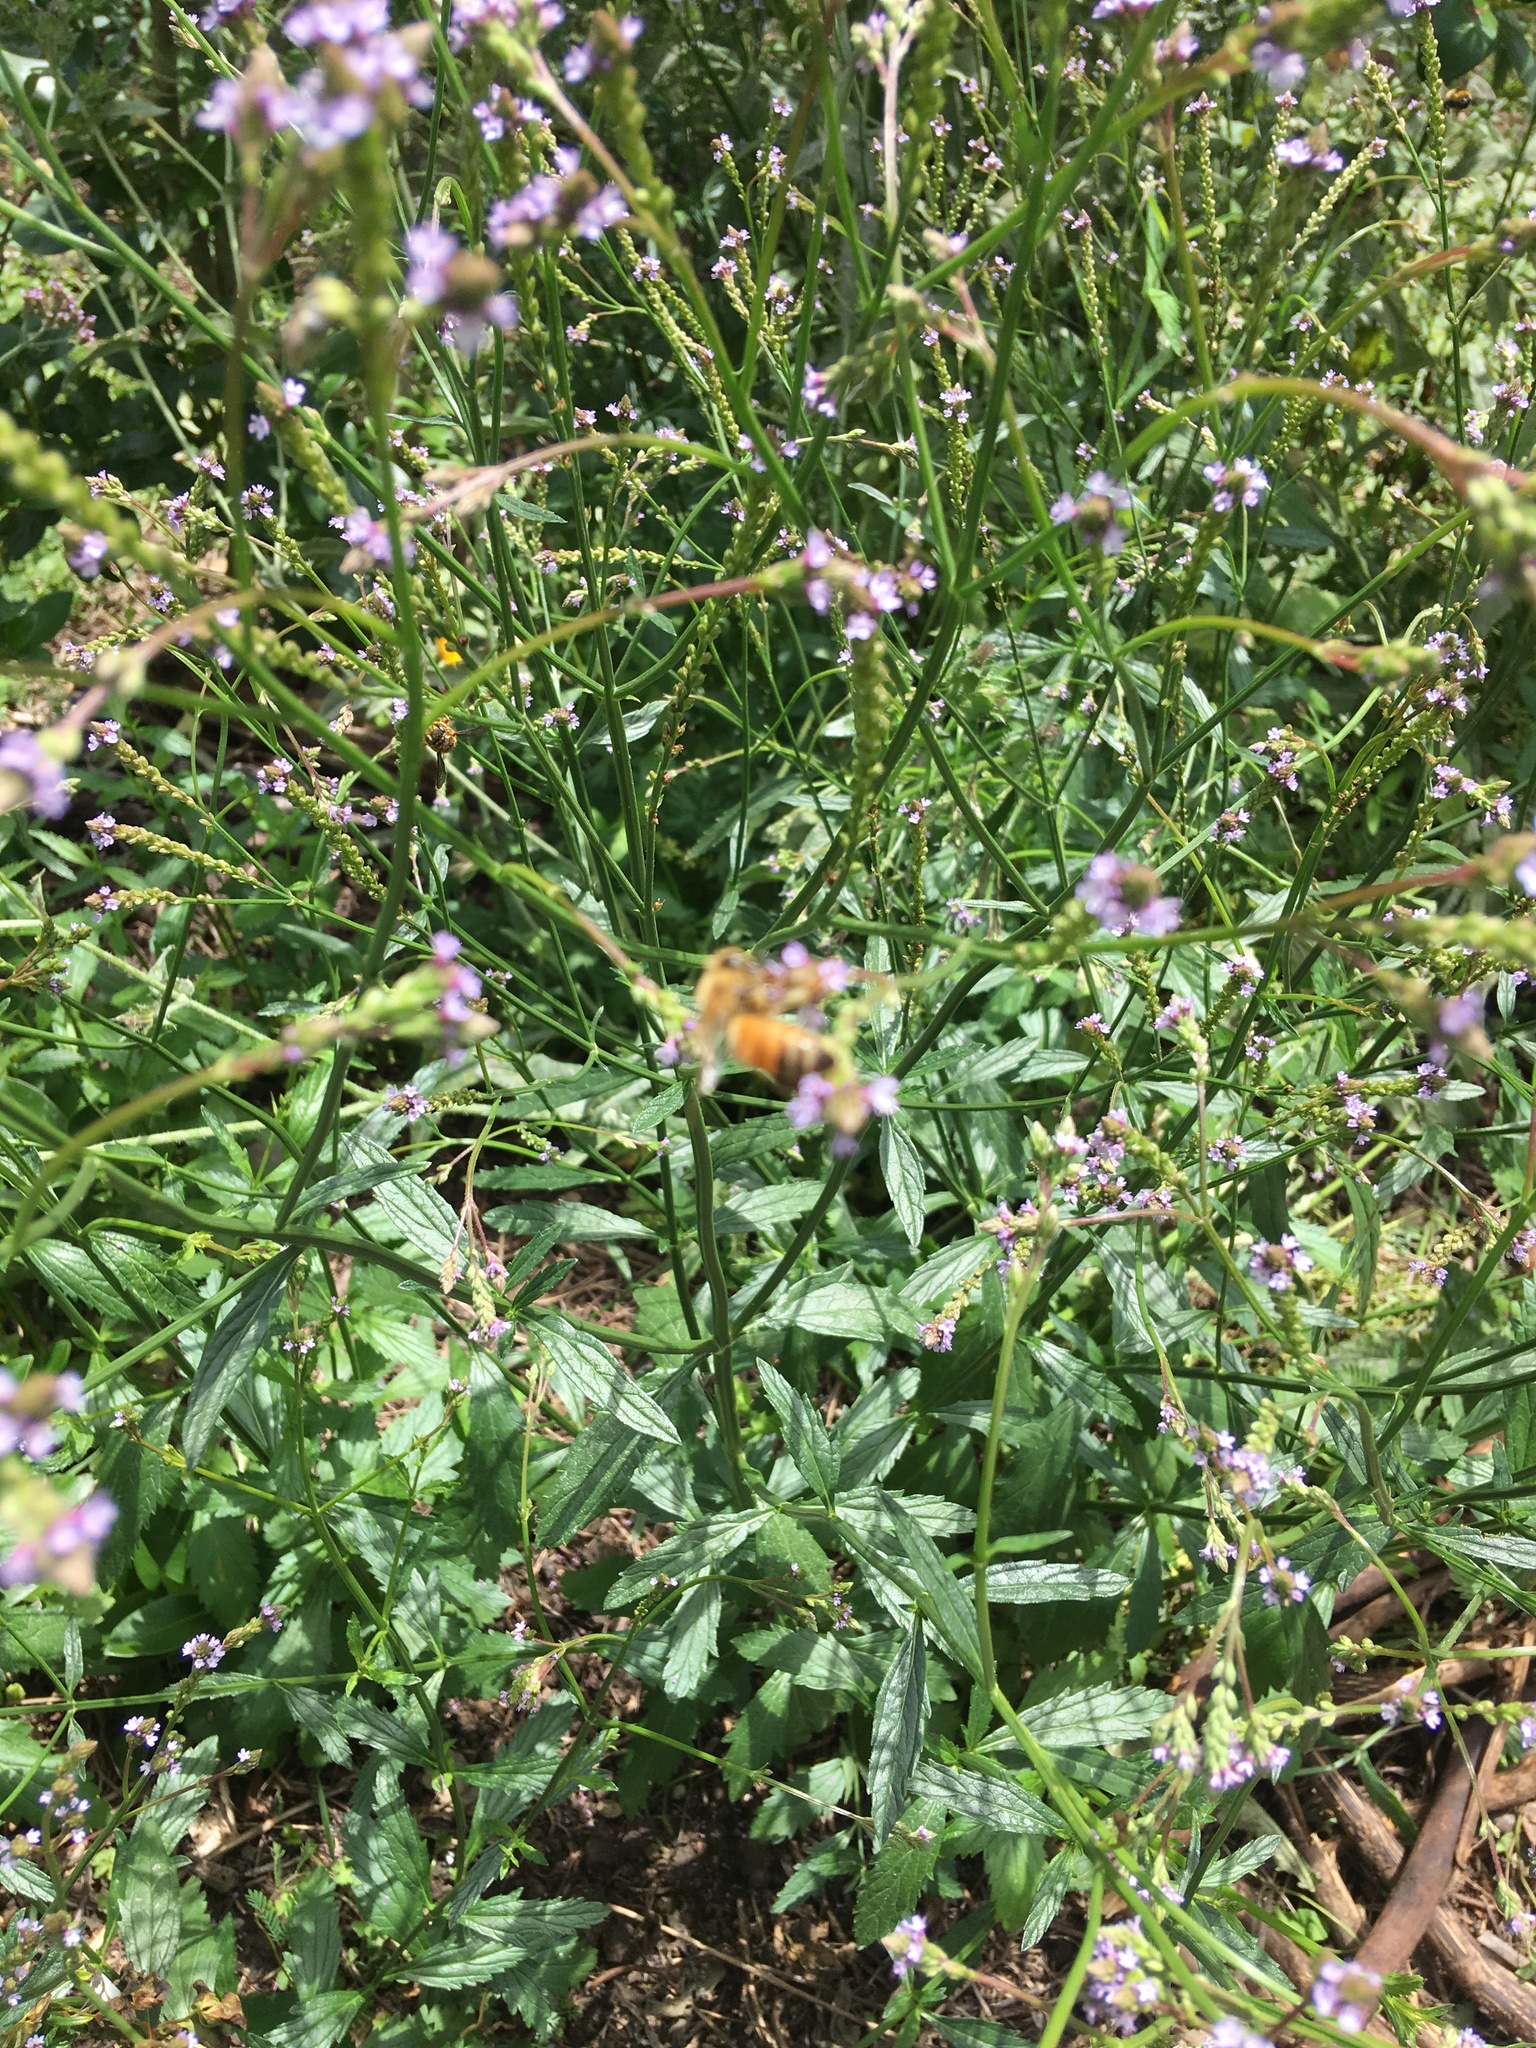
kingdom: Animalia
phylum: Arthropoda
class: Insecta
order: Hymenoptera
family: Apidae
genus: Apis
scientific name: Apis mellifera
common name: Honey bee
